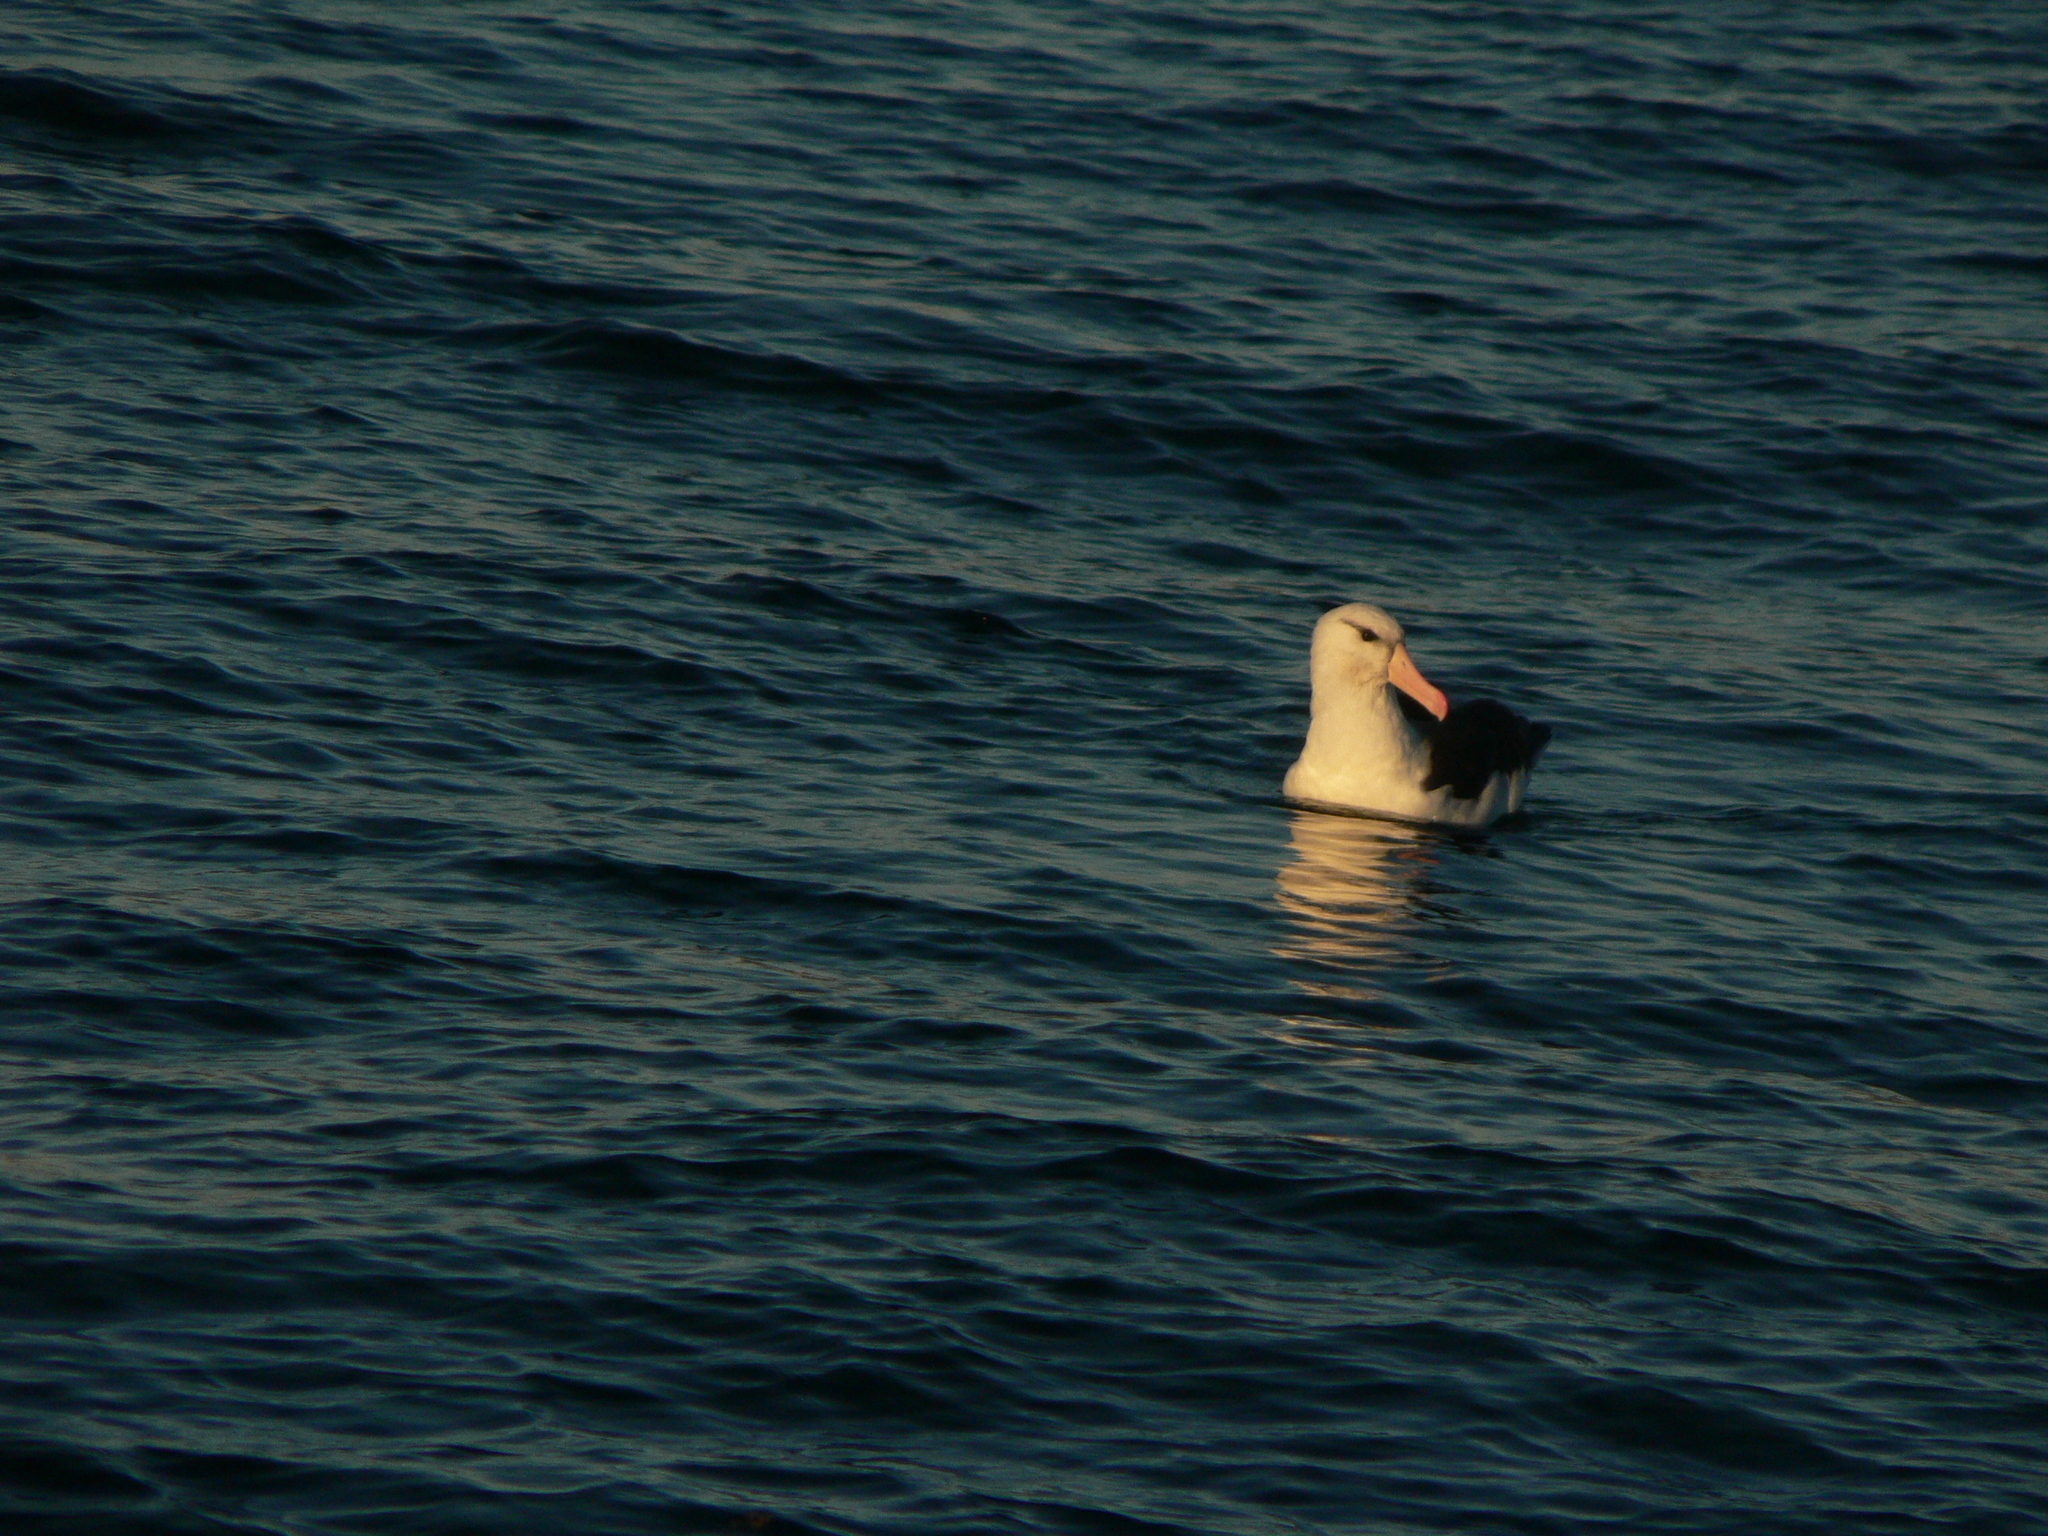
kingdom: Animalia
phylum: Chordata
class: Aves
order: Procellariiformes
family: Diomedeidae
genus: Thalassarche
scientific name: Thalassarche melanophris
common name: Black-browed albatross
